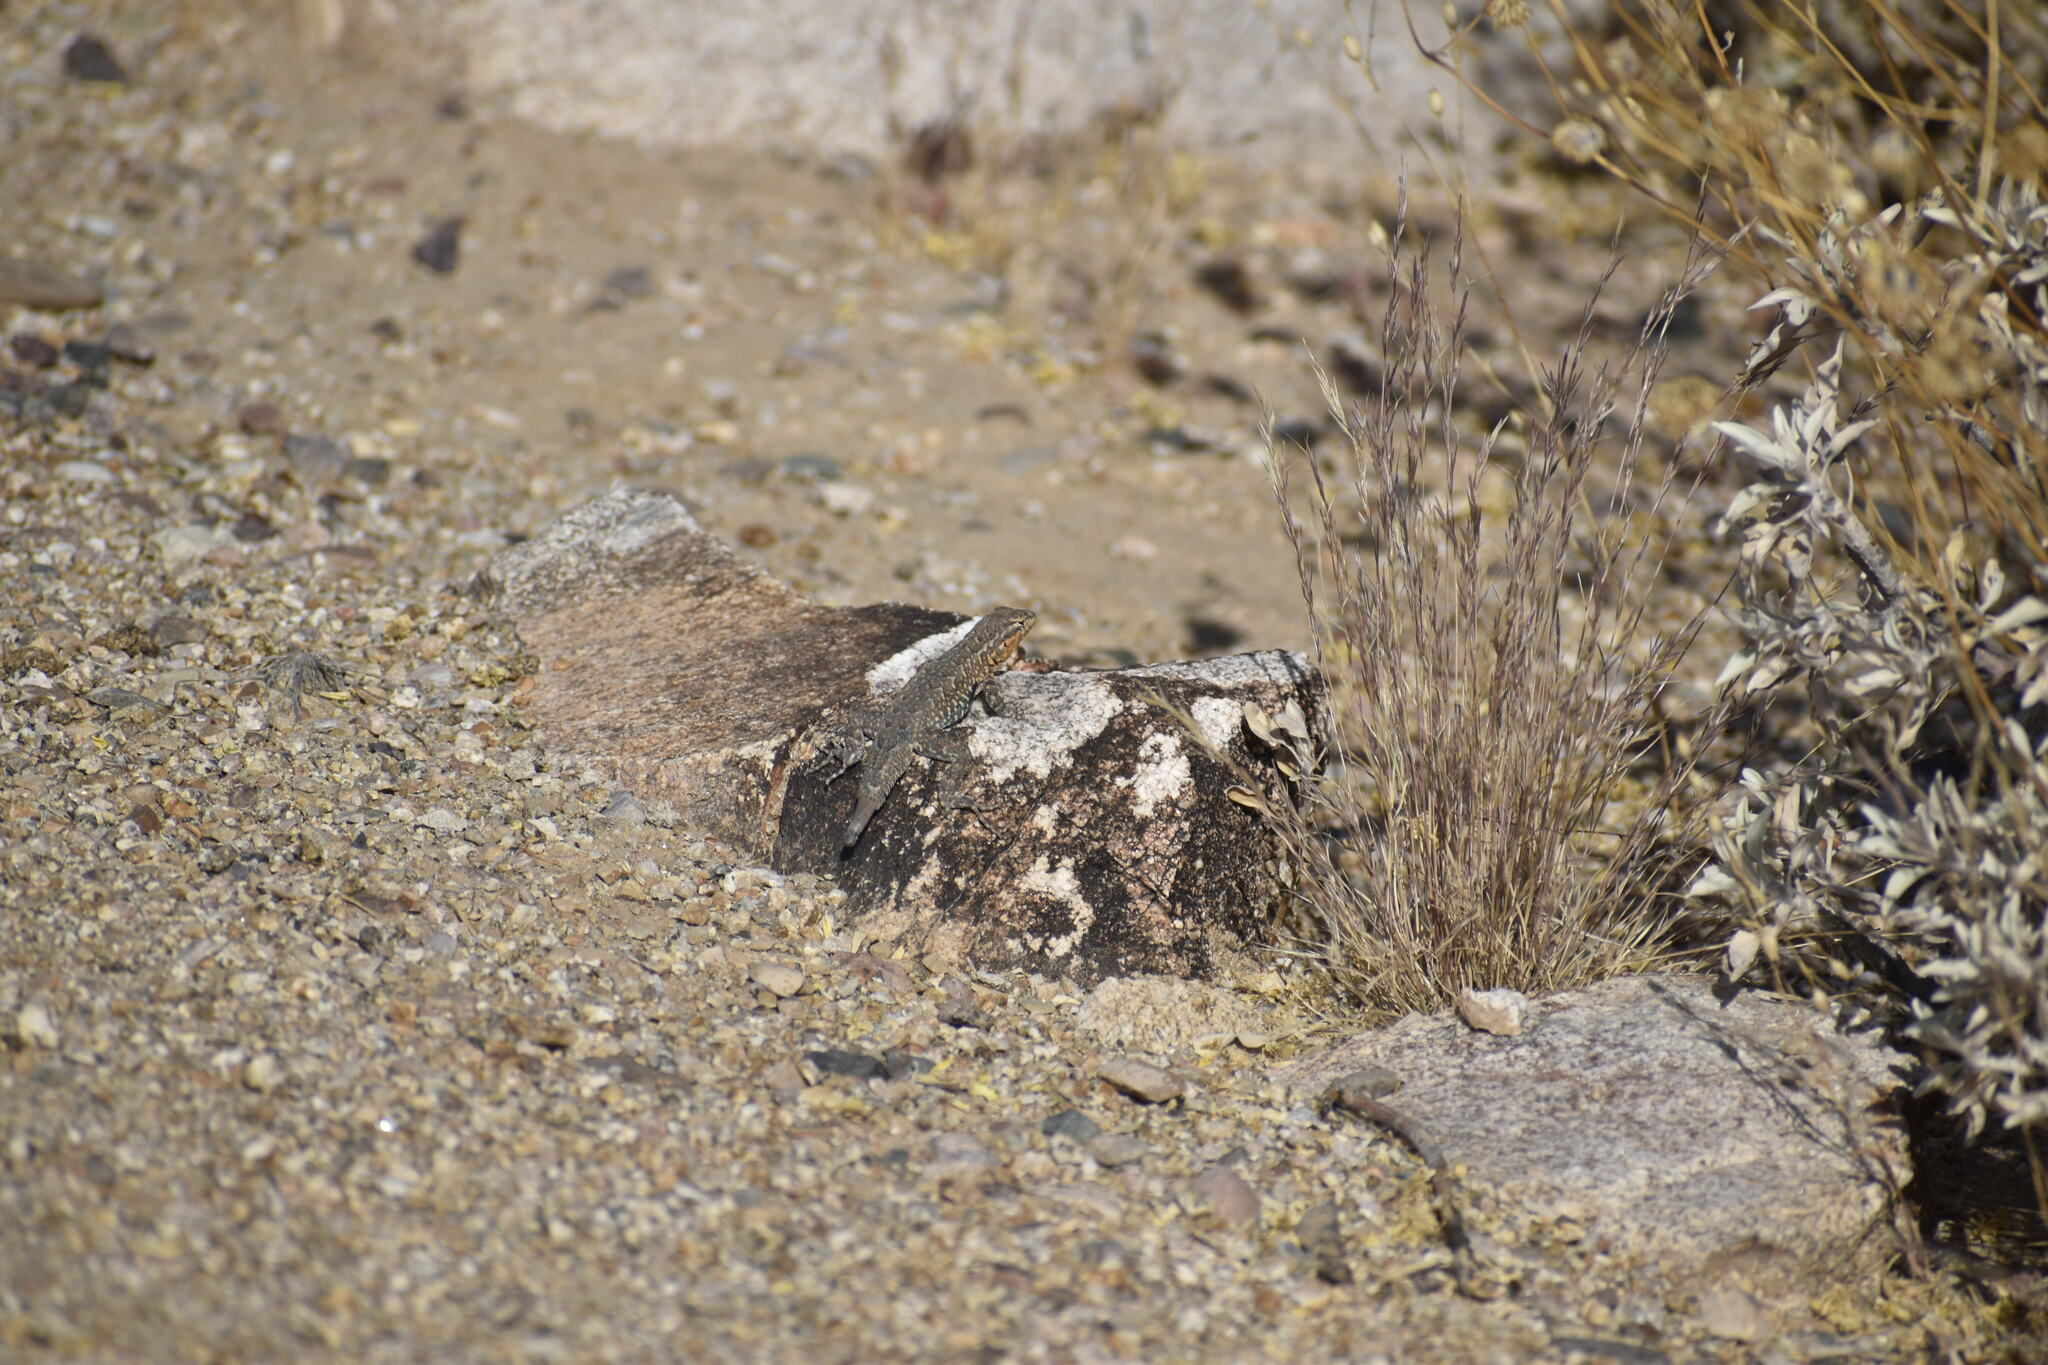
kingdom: Animalia
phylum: Chordata
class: Squamata
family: Phrynosomatidae
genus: Uta
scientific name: Uta stansburiana
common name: Side-blotched lizard
